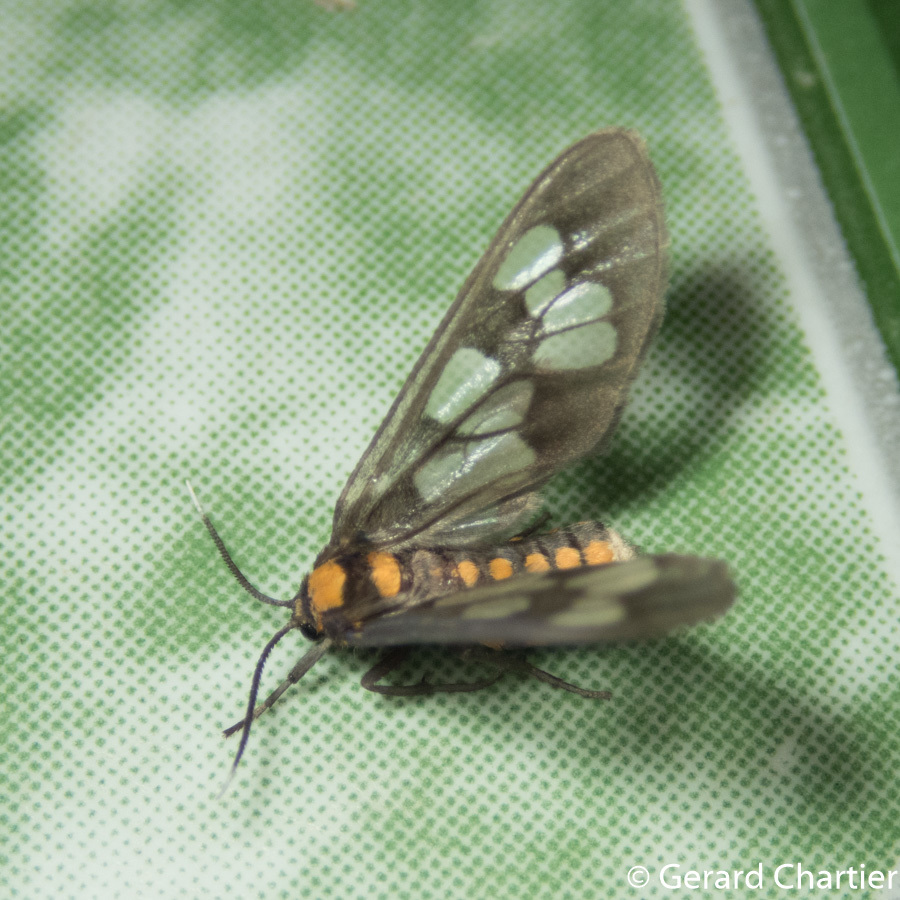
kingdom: Animalia
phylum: Arthropoda
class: Insecta
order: Lepidoptera
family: Erebidae
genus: Eressa
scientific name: Eressa confinis
